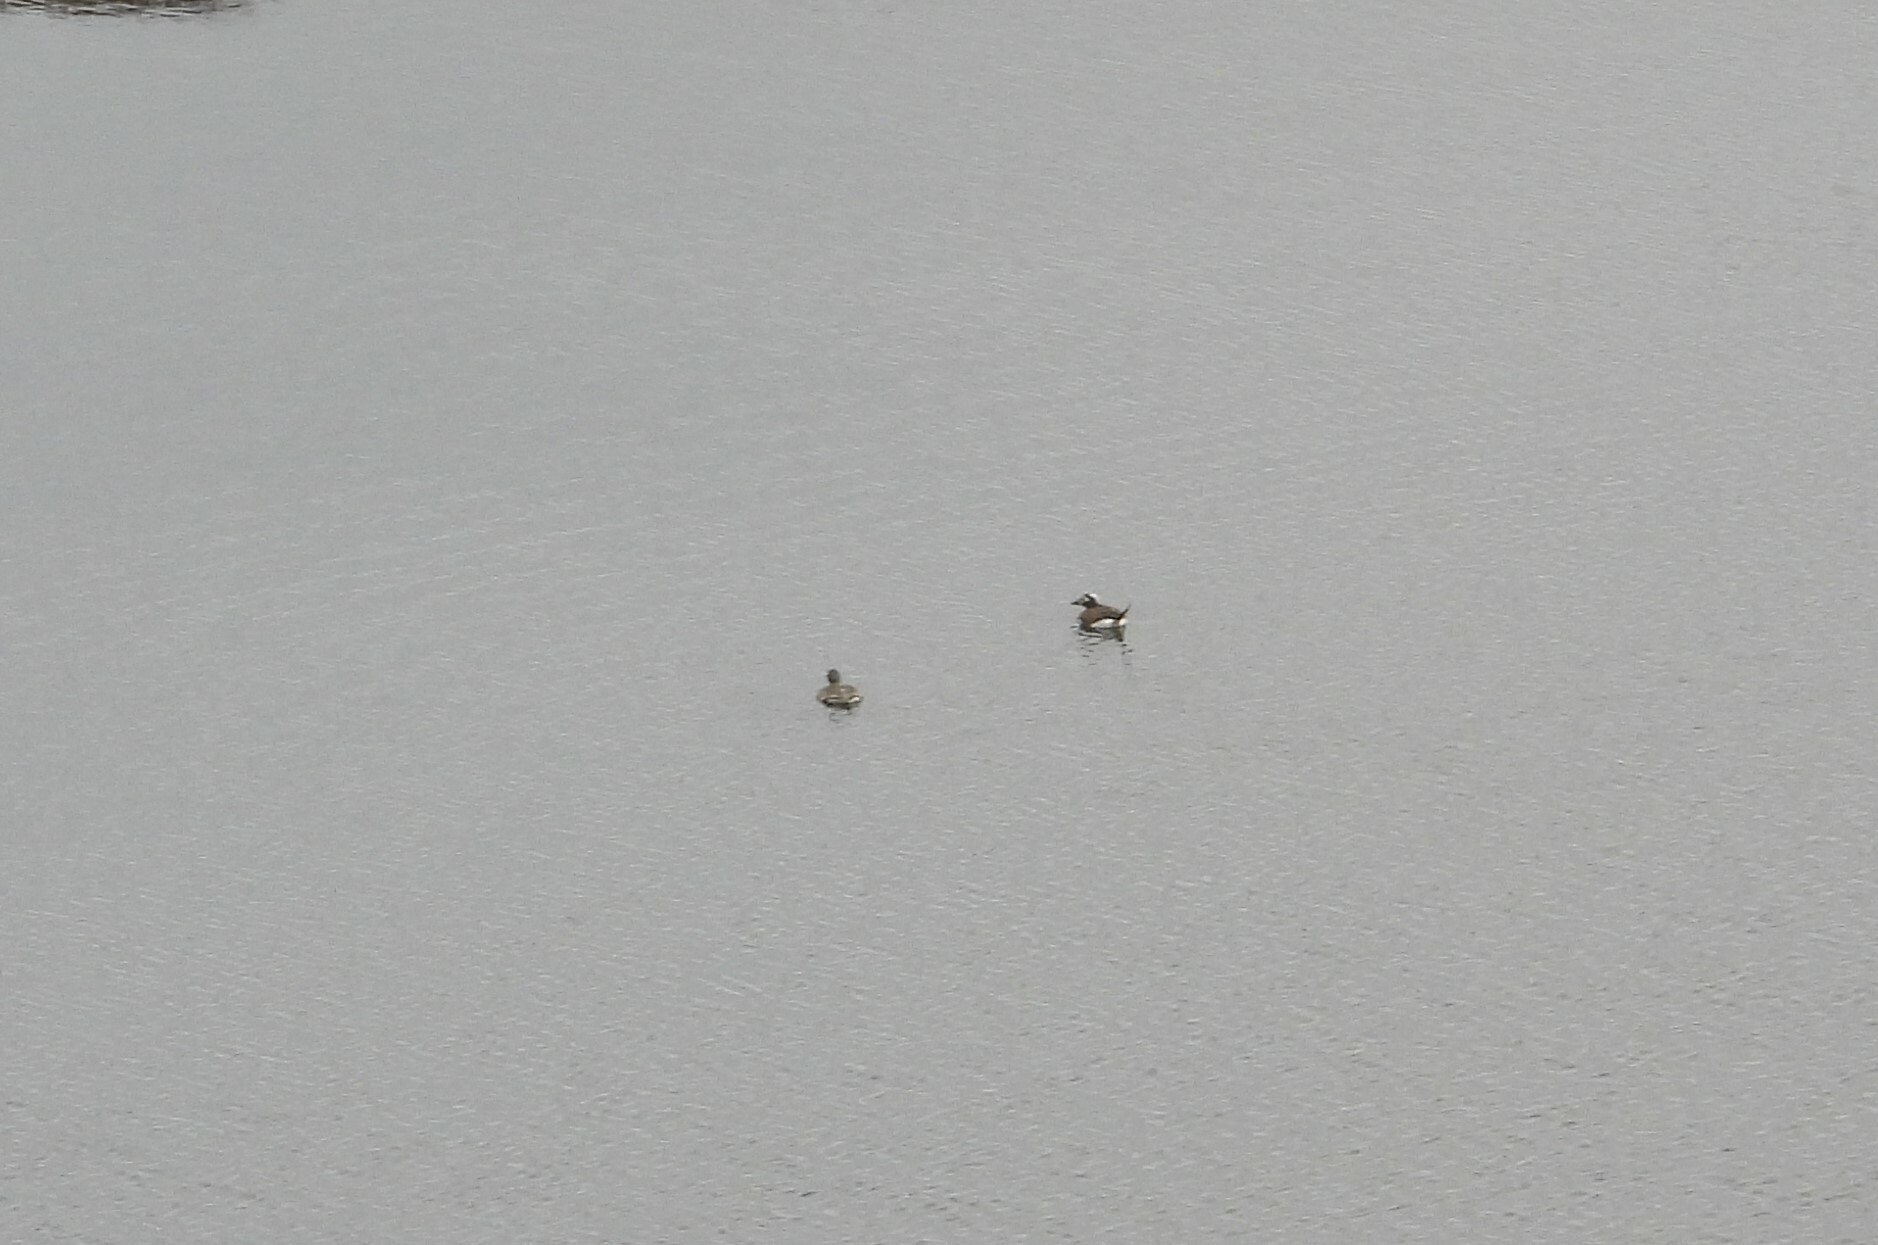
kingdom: Animalia
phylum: Chordata
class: Aves
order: Anseriformes
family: Anatidae
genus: Clangula
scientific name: Clangula hyemalis
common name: Long-tailed duck
